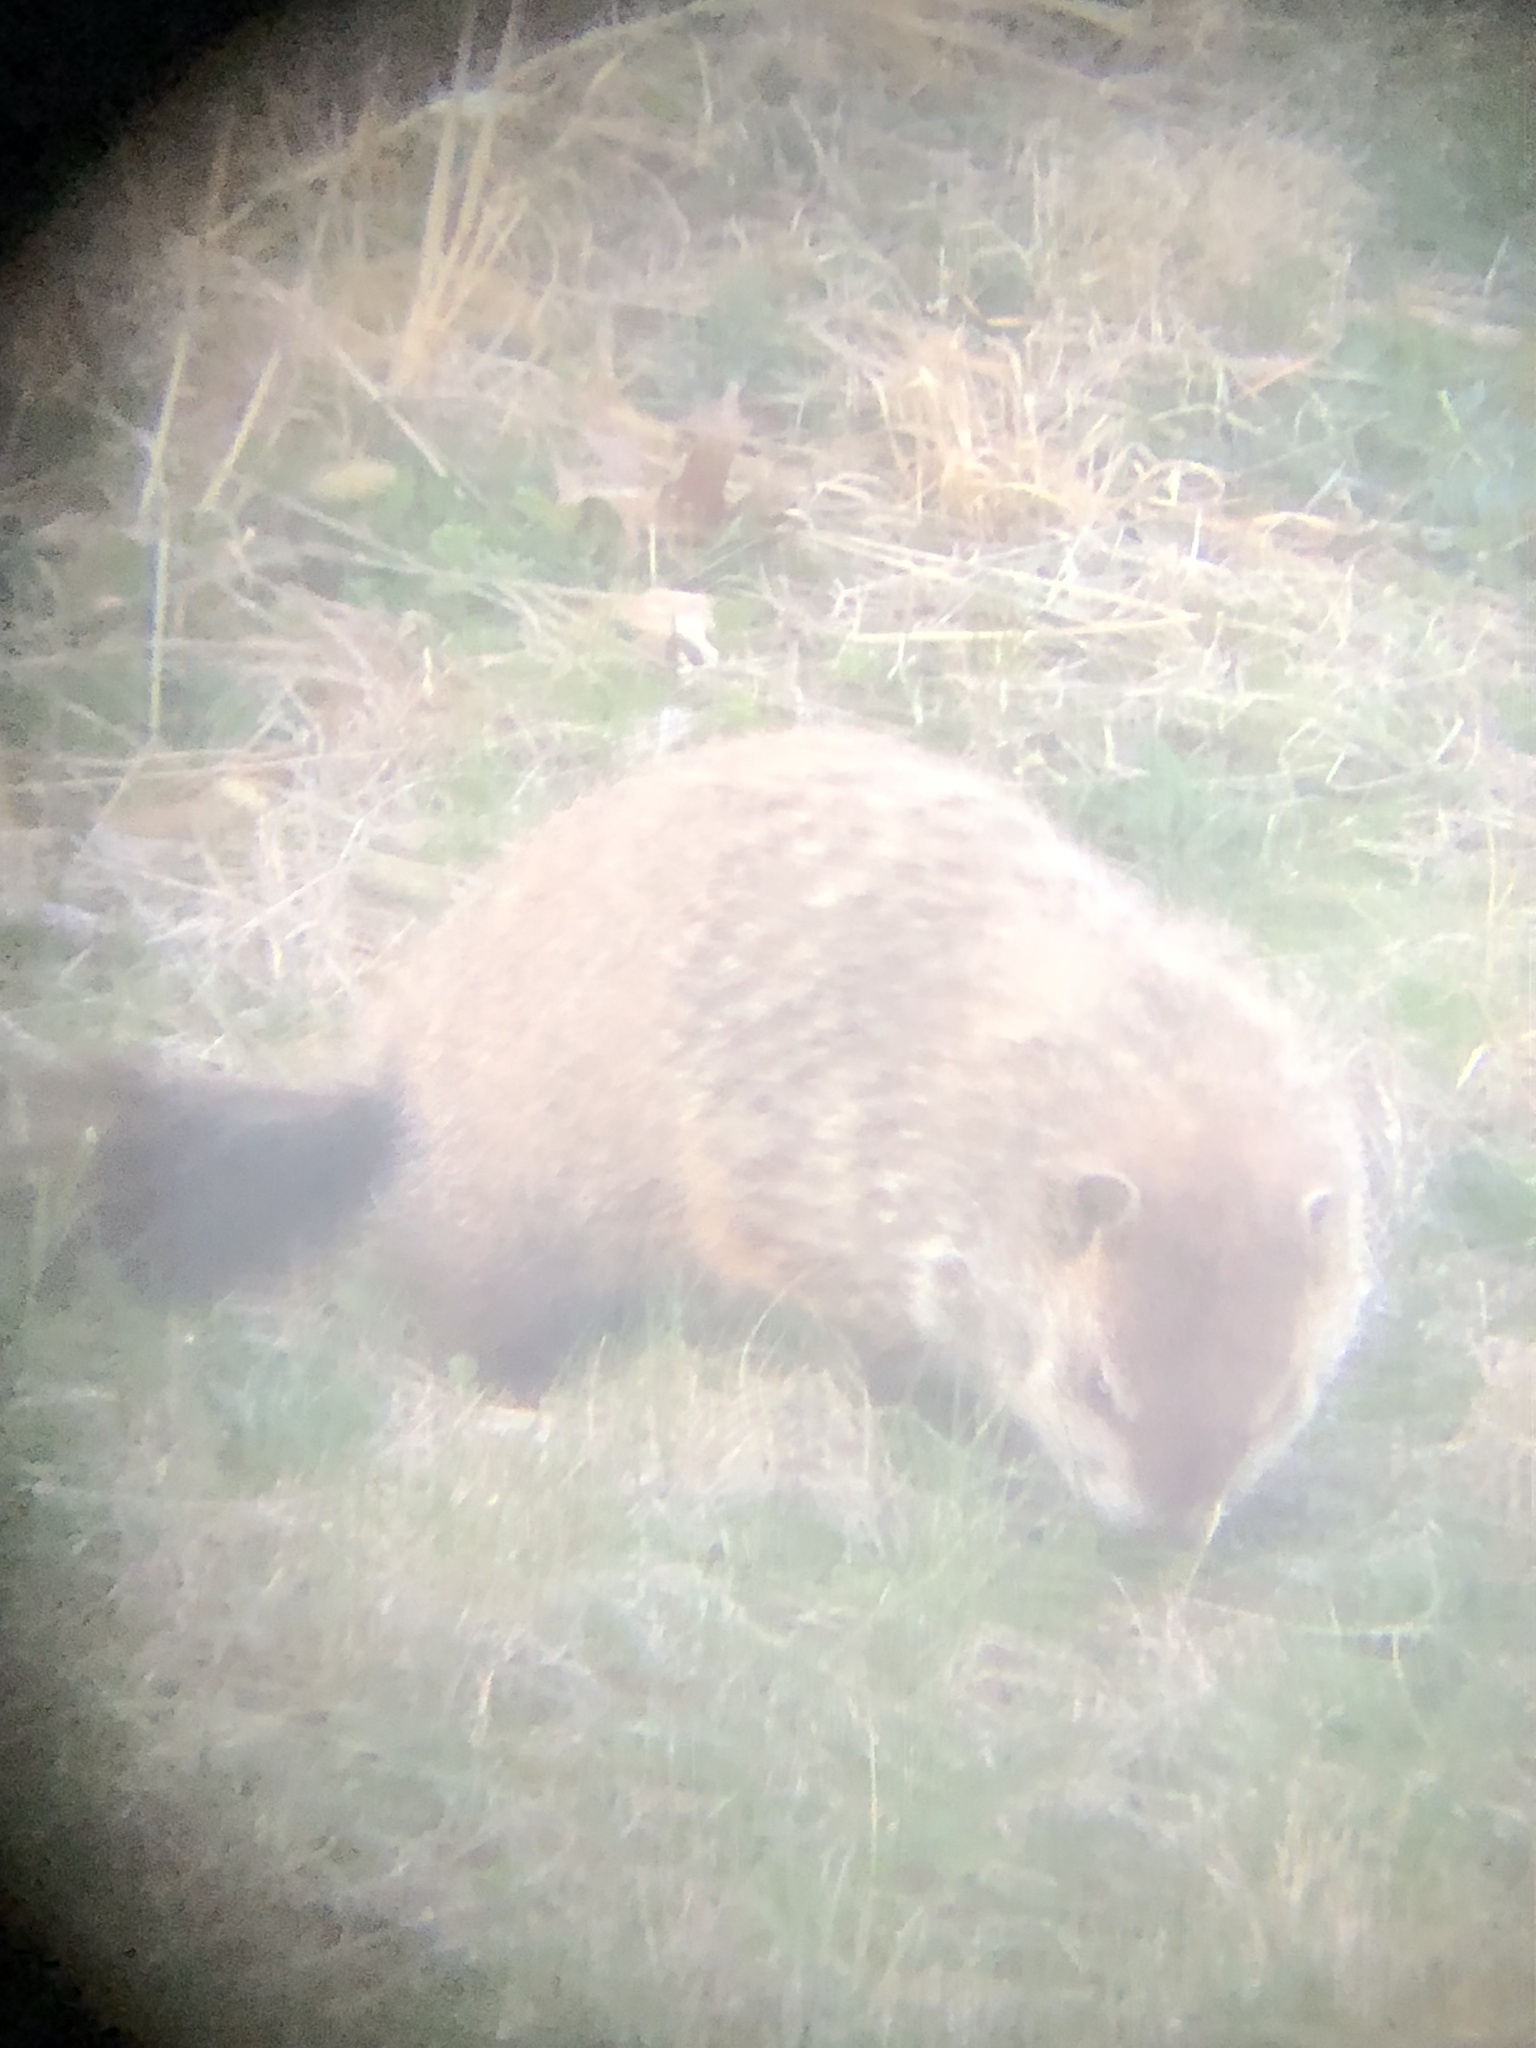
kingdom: Animalia
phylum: Chordata
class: Mammalia
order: Rodentia
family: Sciuridae
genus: Marmota
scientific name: Marmota monax
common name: Groundhog
